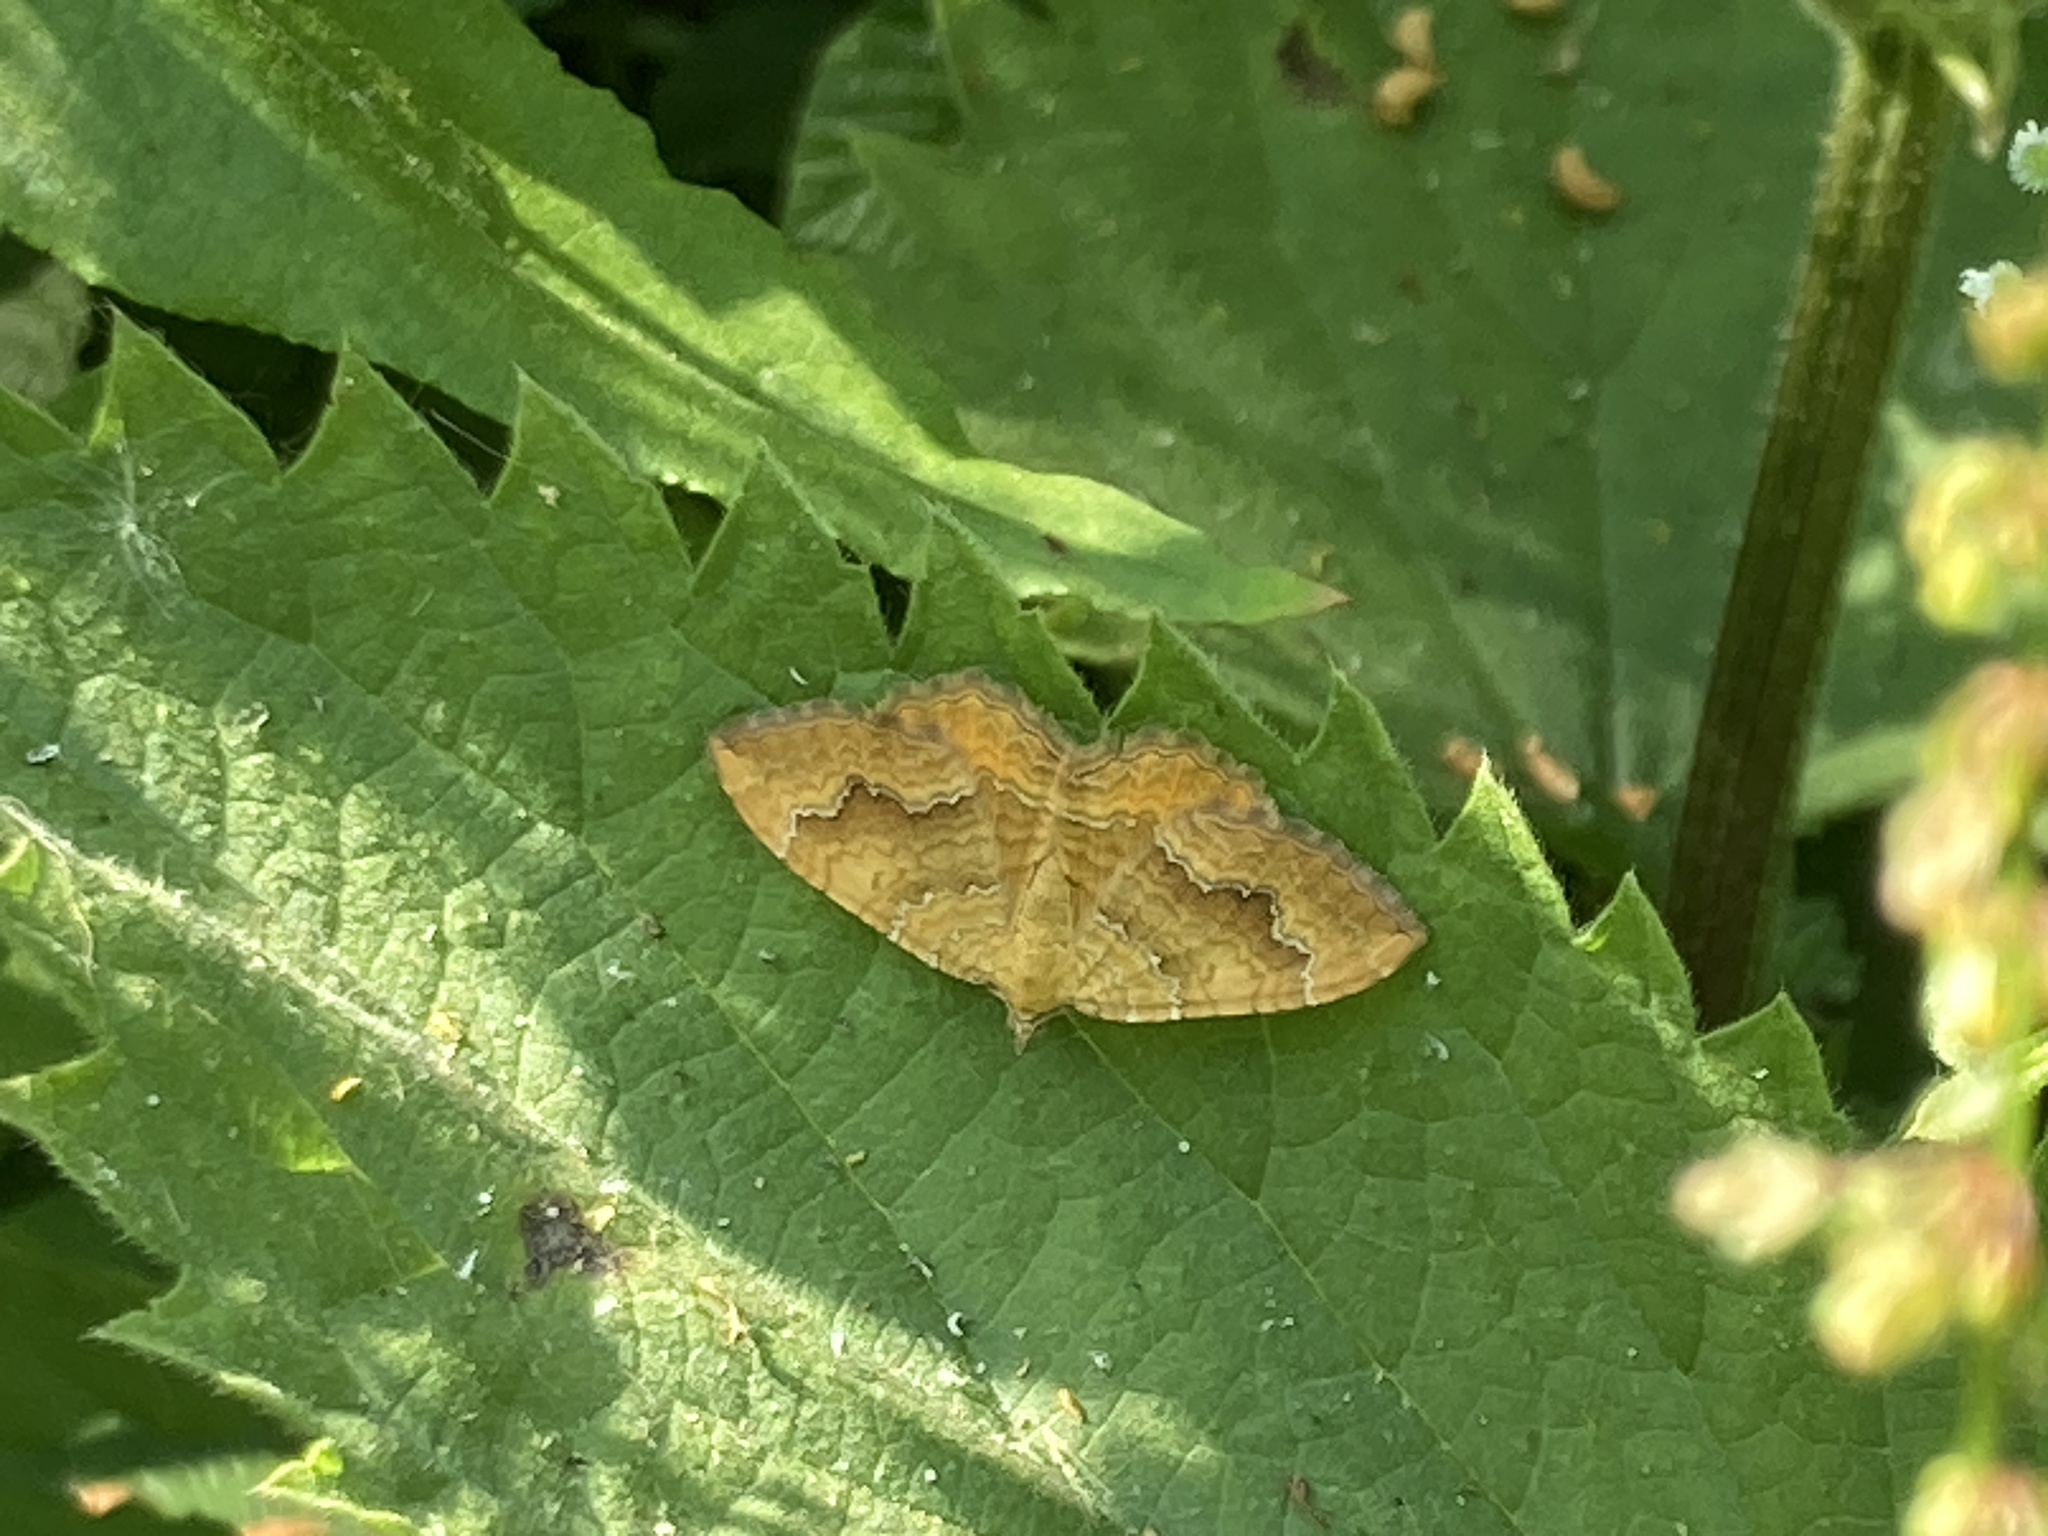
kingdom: Animalia
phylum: Arthropoda
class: Insecta
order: Lepidoptera
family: Geometridae
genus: Camptogramma
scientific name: Camptogramma bilineata
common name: Yellow shell
